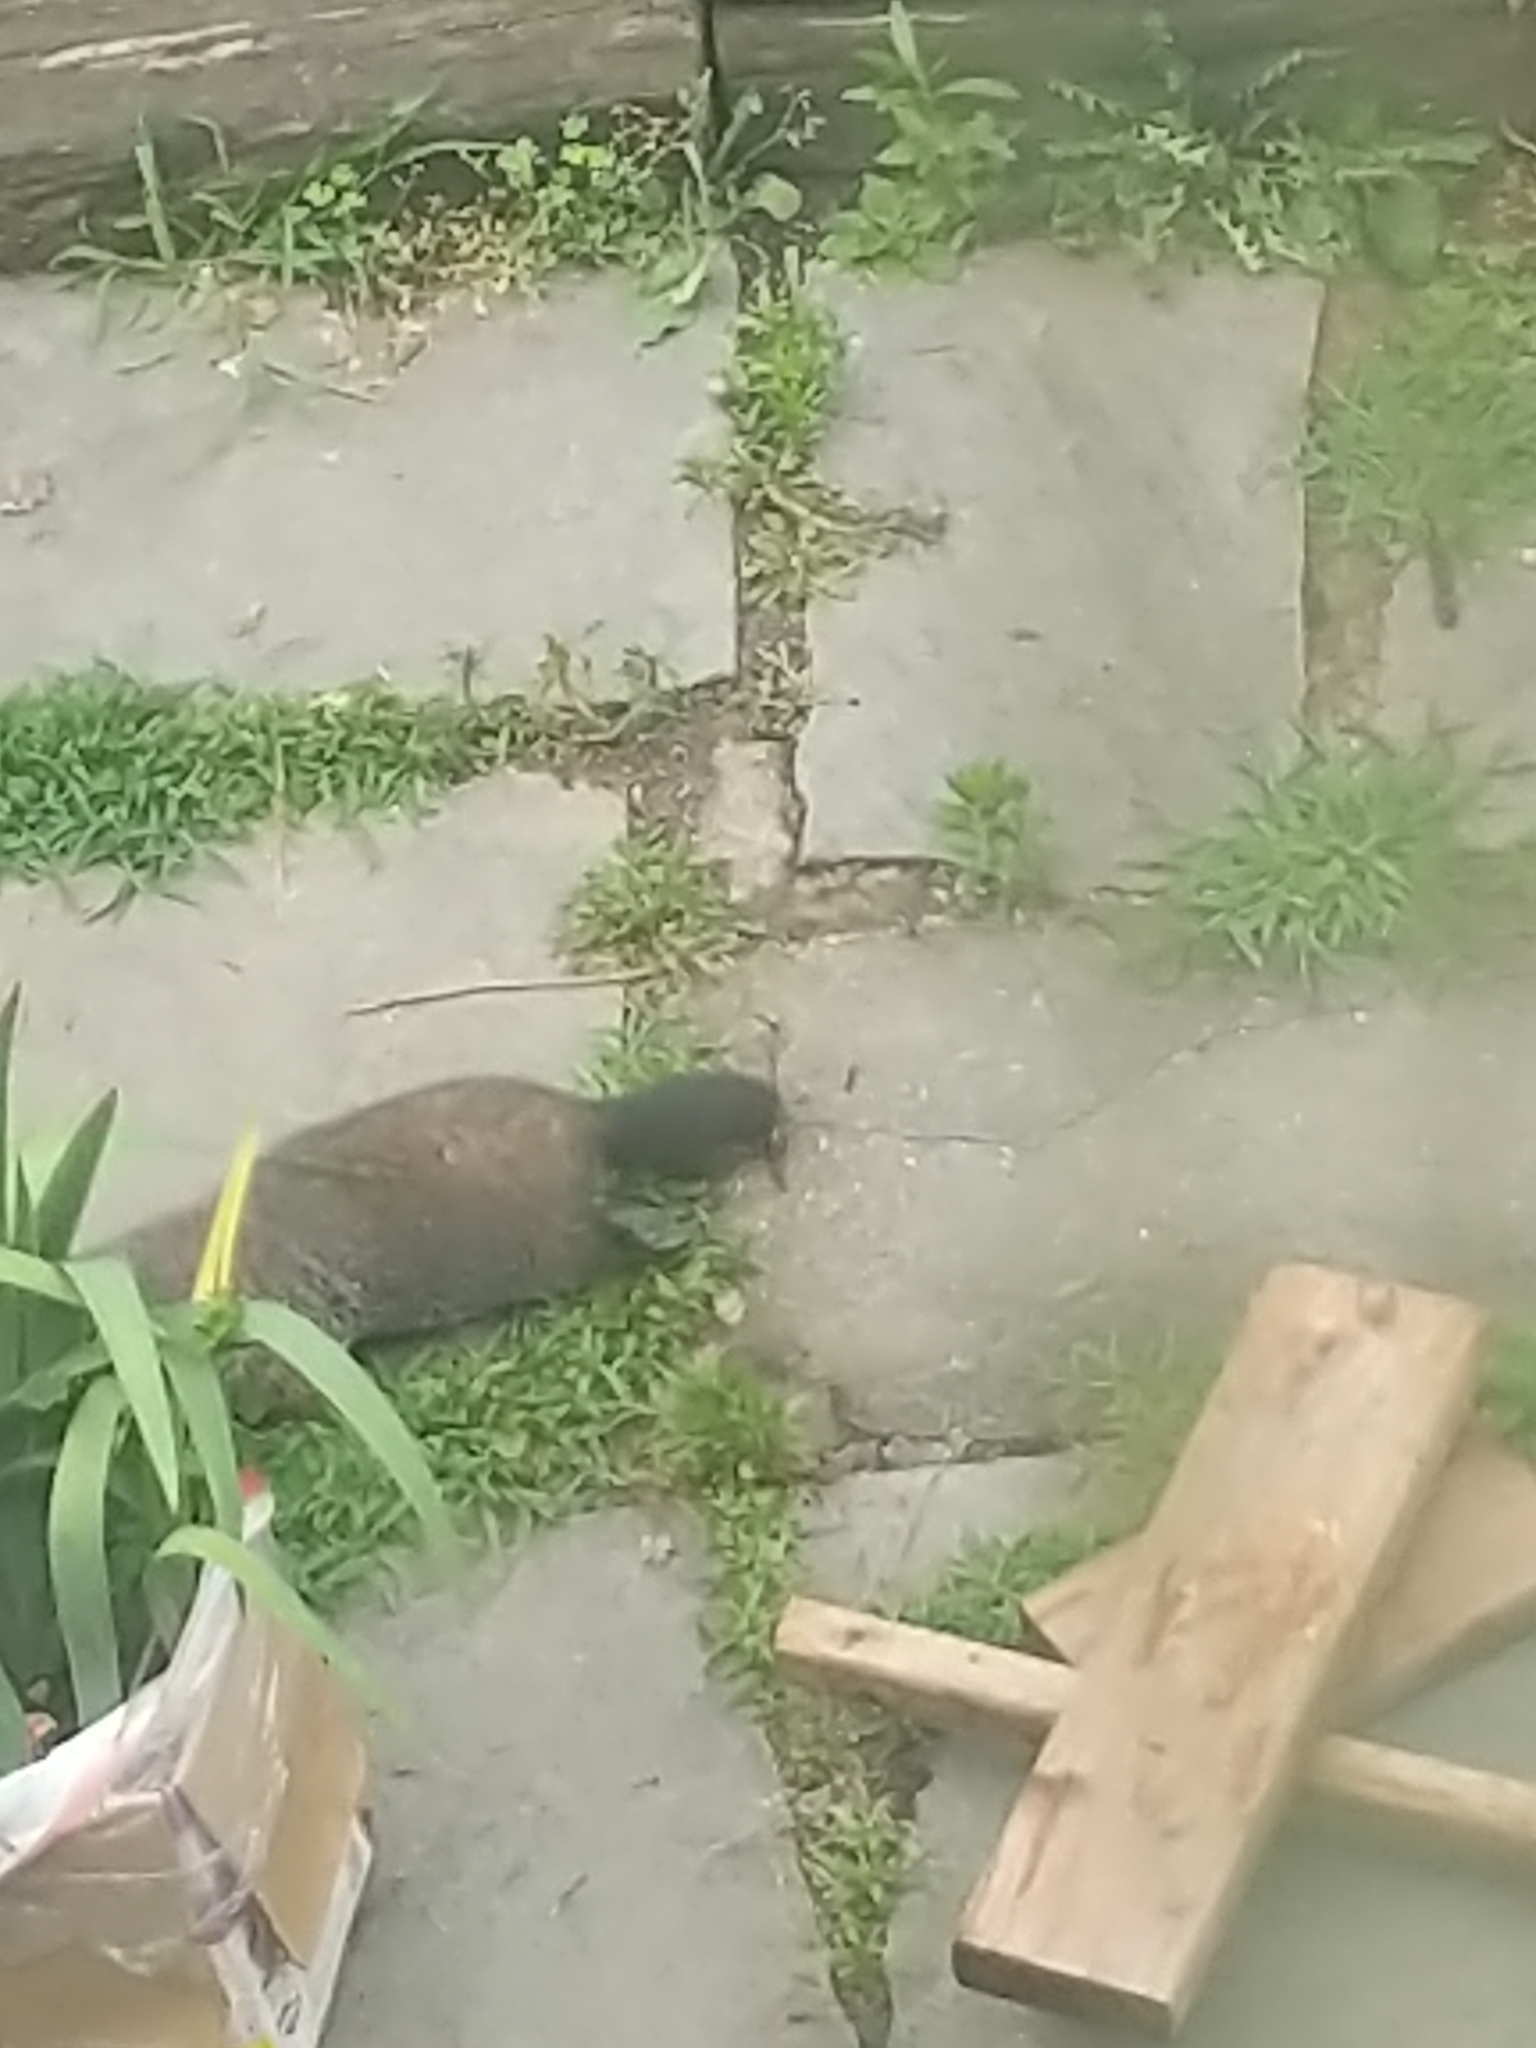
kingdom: Animalia
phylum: Chordata
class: Mammalia
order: Rodentia
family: Sciuridae
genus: Marmota
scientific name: Marmota monax
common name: Groundhog
